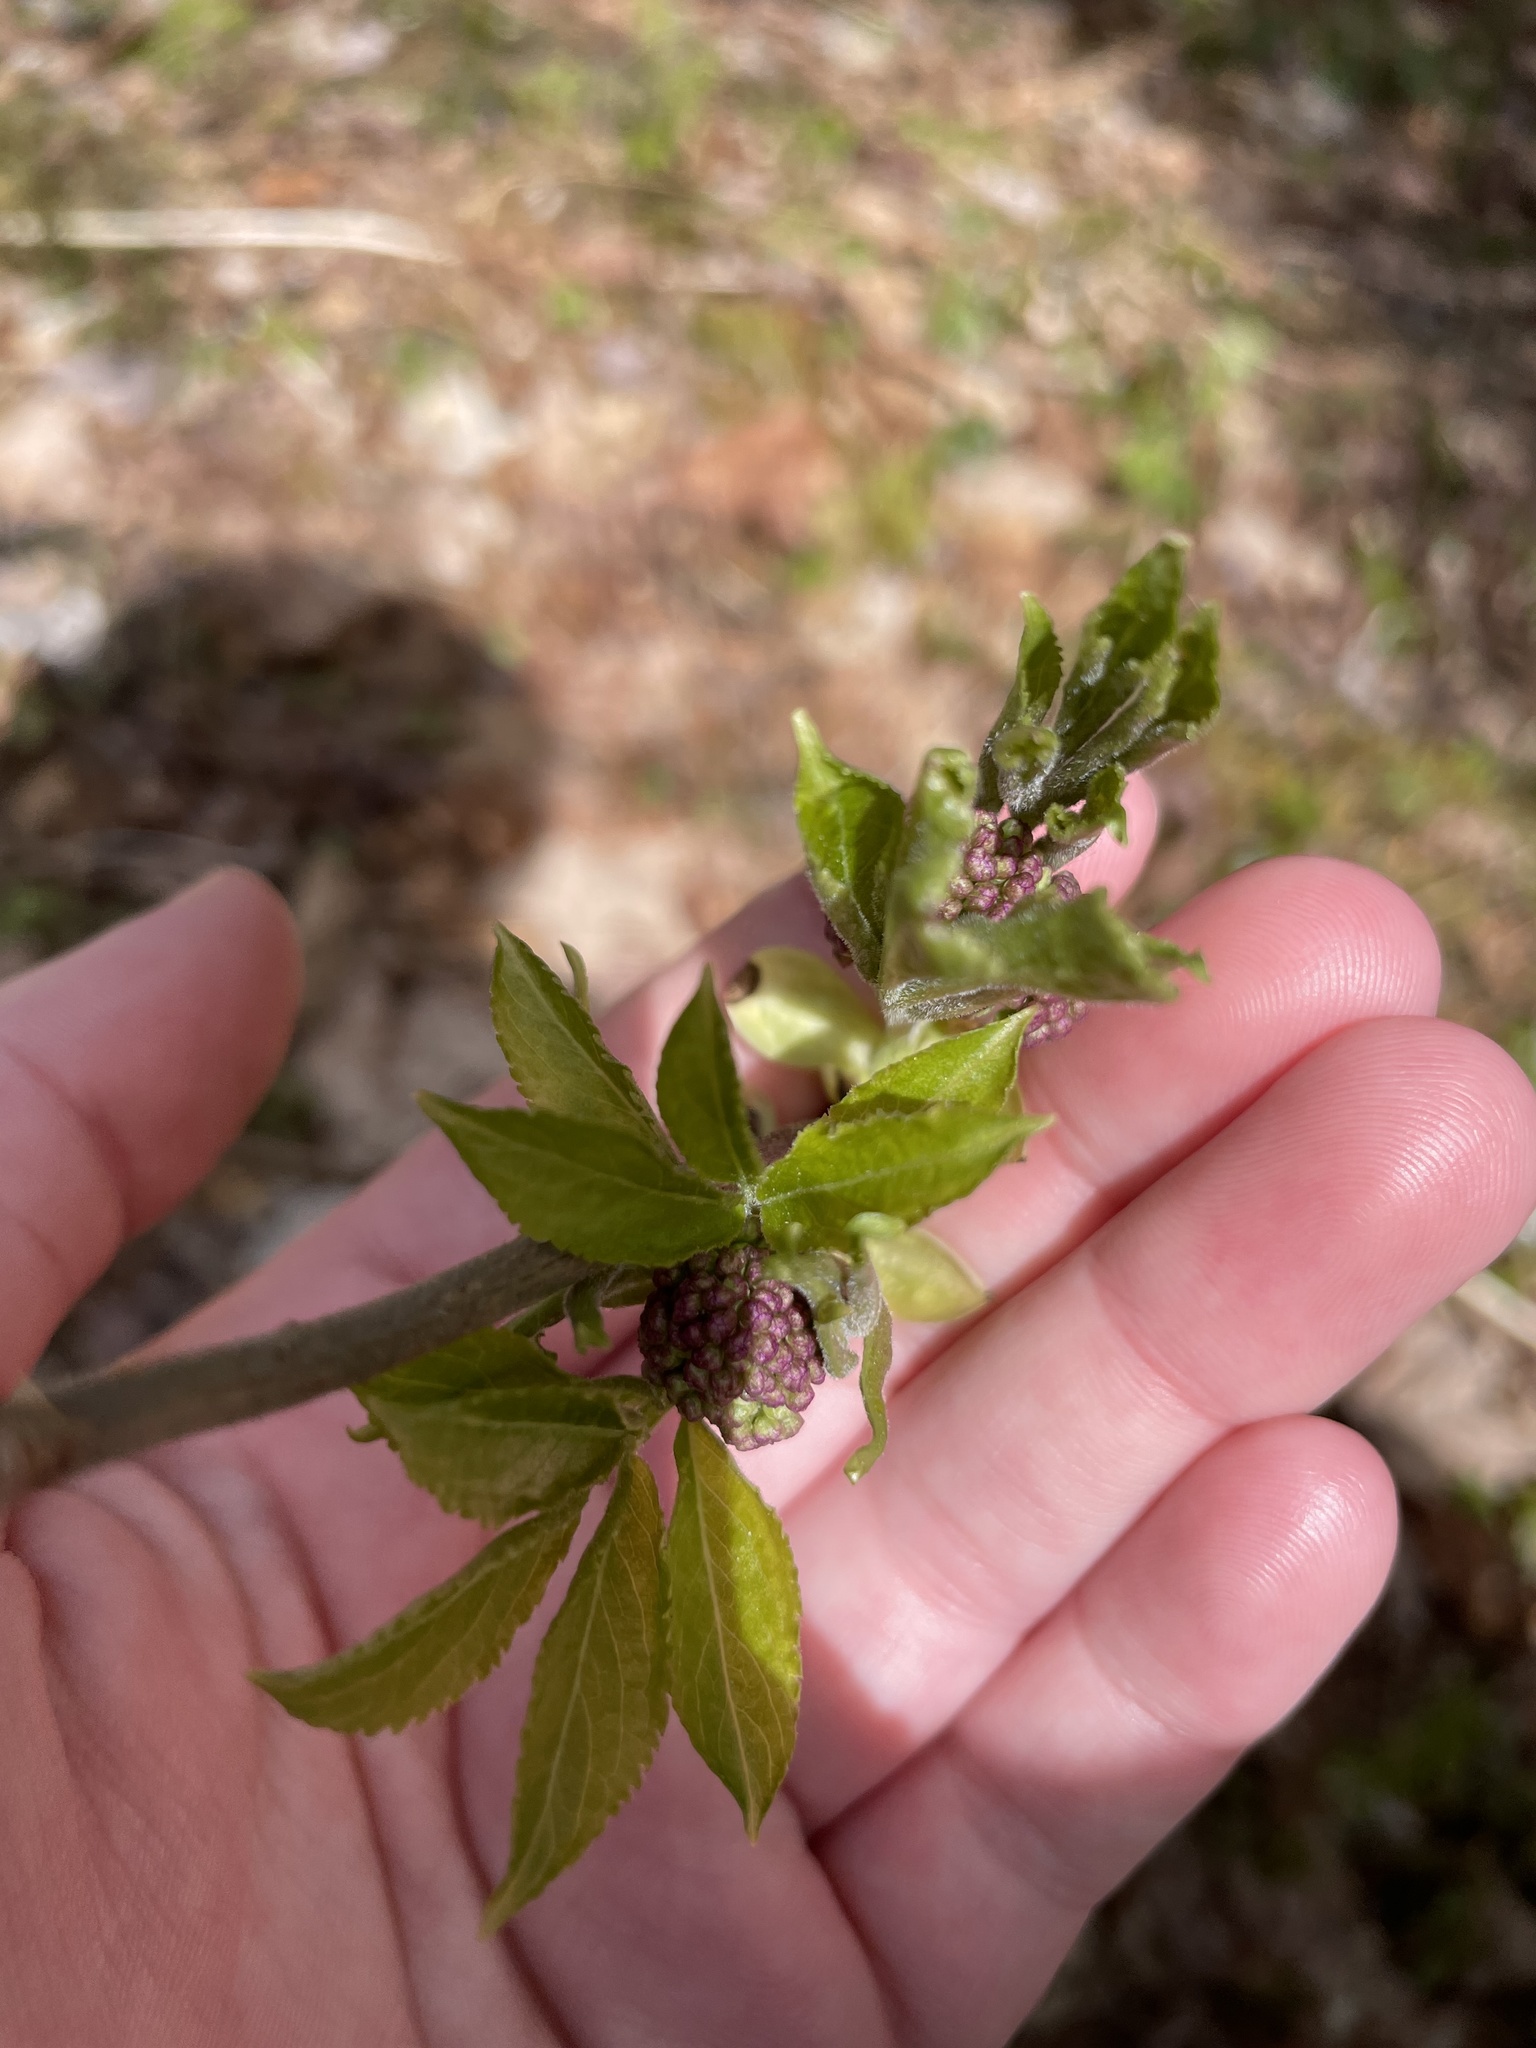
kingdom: Plantae
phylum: Tracheophyta
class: Magnoliopsida
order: Dipsacales
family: Viburnaceae
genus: Sambucus
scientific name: Sambucus racemosa
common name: Red-berried elder
